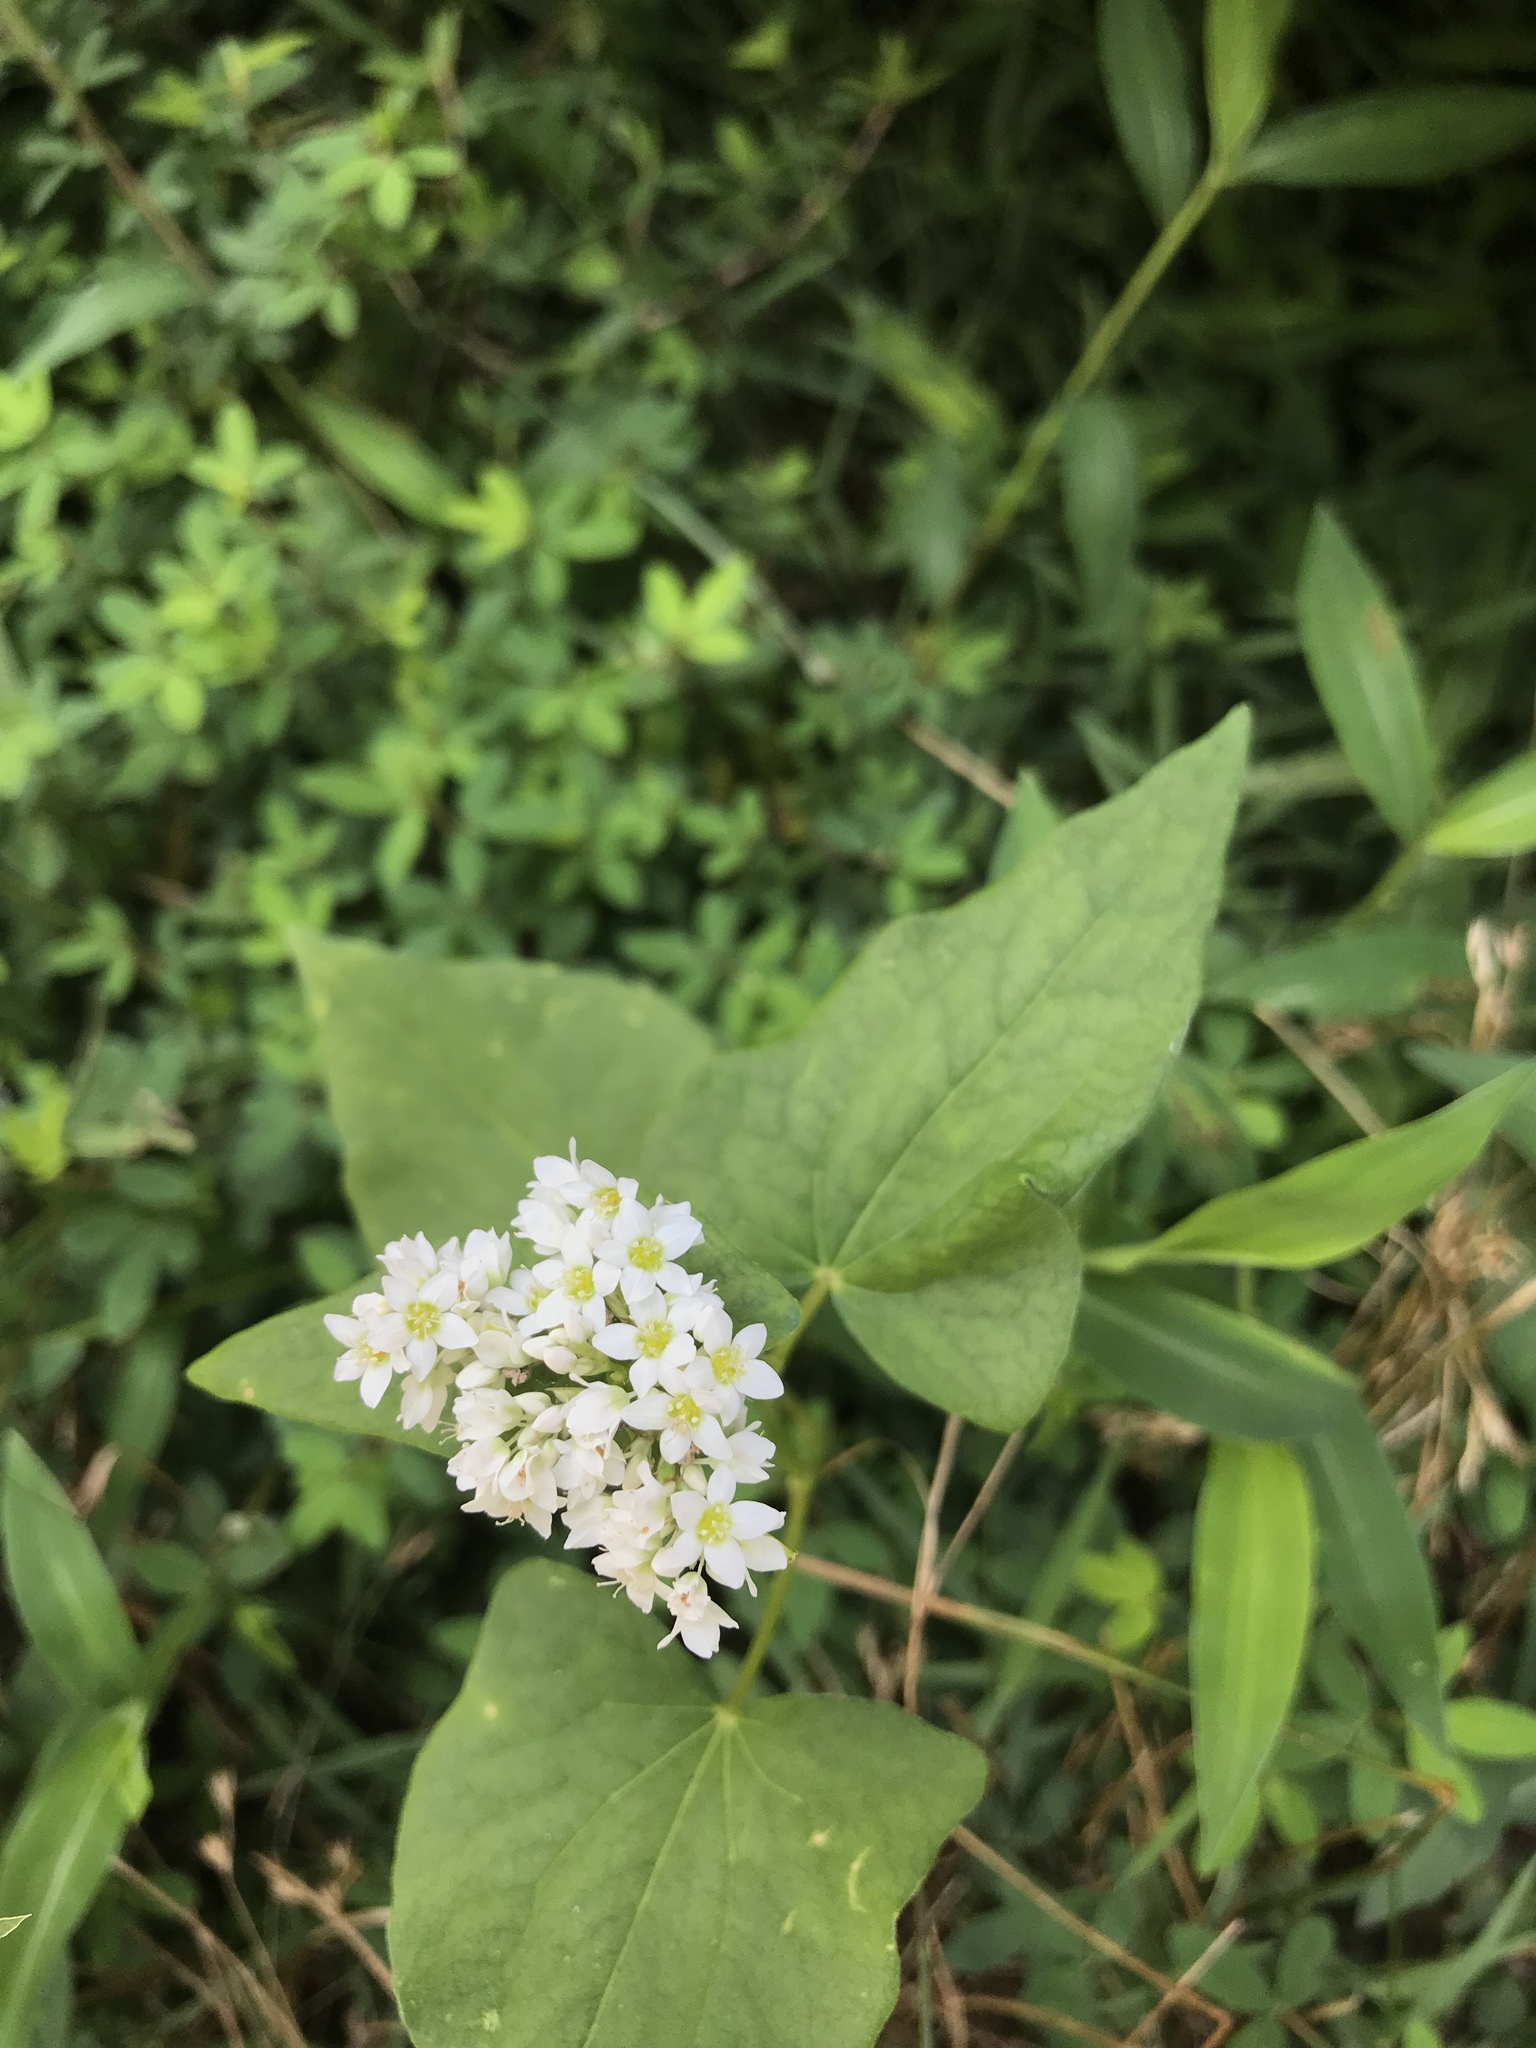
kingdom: Plantae
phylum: Tracheophyta
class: Magnoliopsida
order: Caryophyllales
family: Polygonaceae
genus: Fagopyrum
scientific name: Fagopyrum esculentum
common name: Buckwheat
